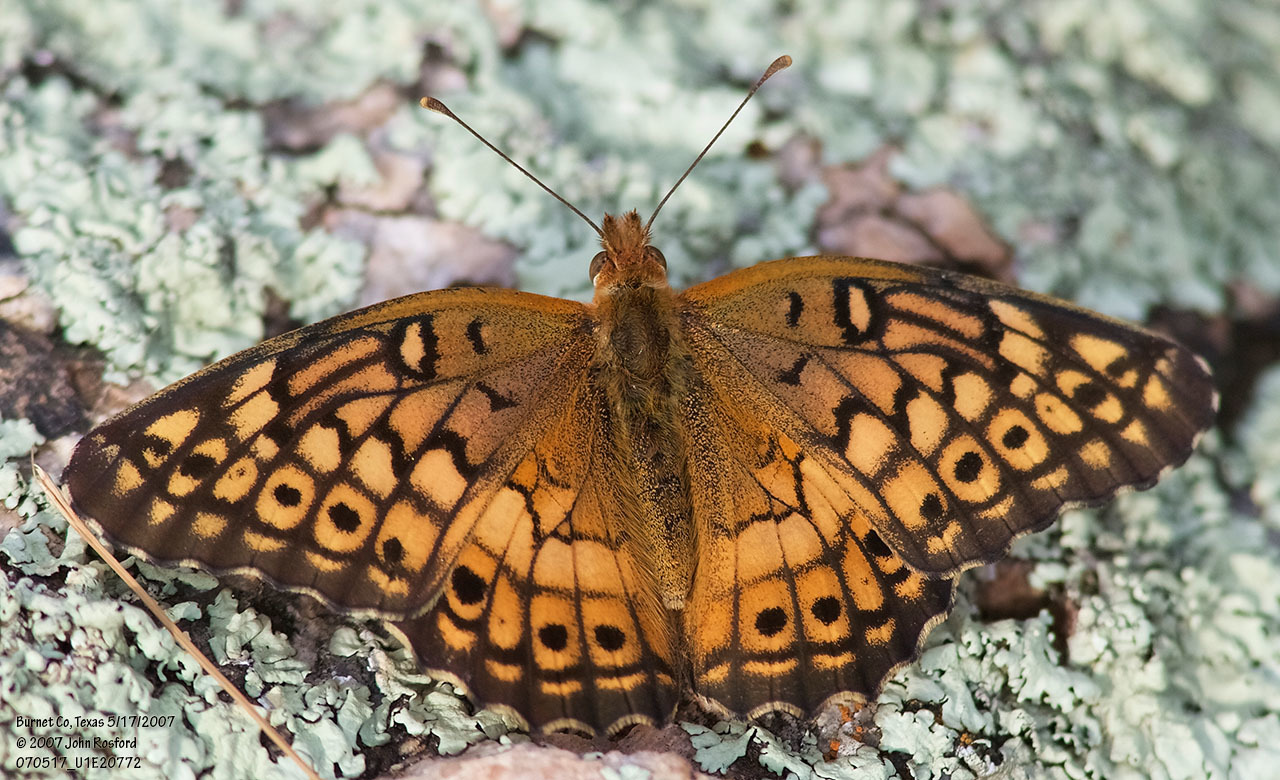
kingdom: Animalia
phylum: Arthropoda
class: Insecta
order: Lepidoptera
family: Nymphalidae
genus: Euptoieta
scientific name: Euptoieta claudia
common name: Variegated fritillary
